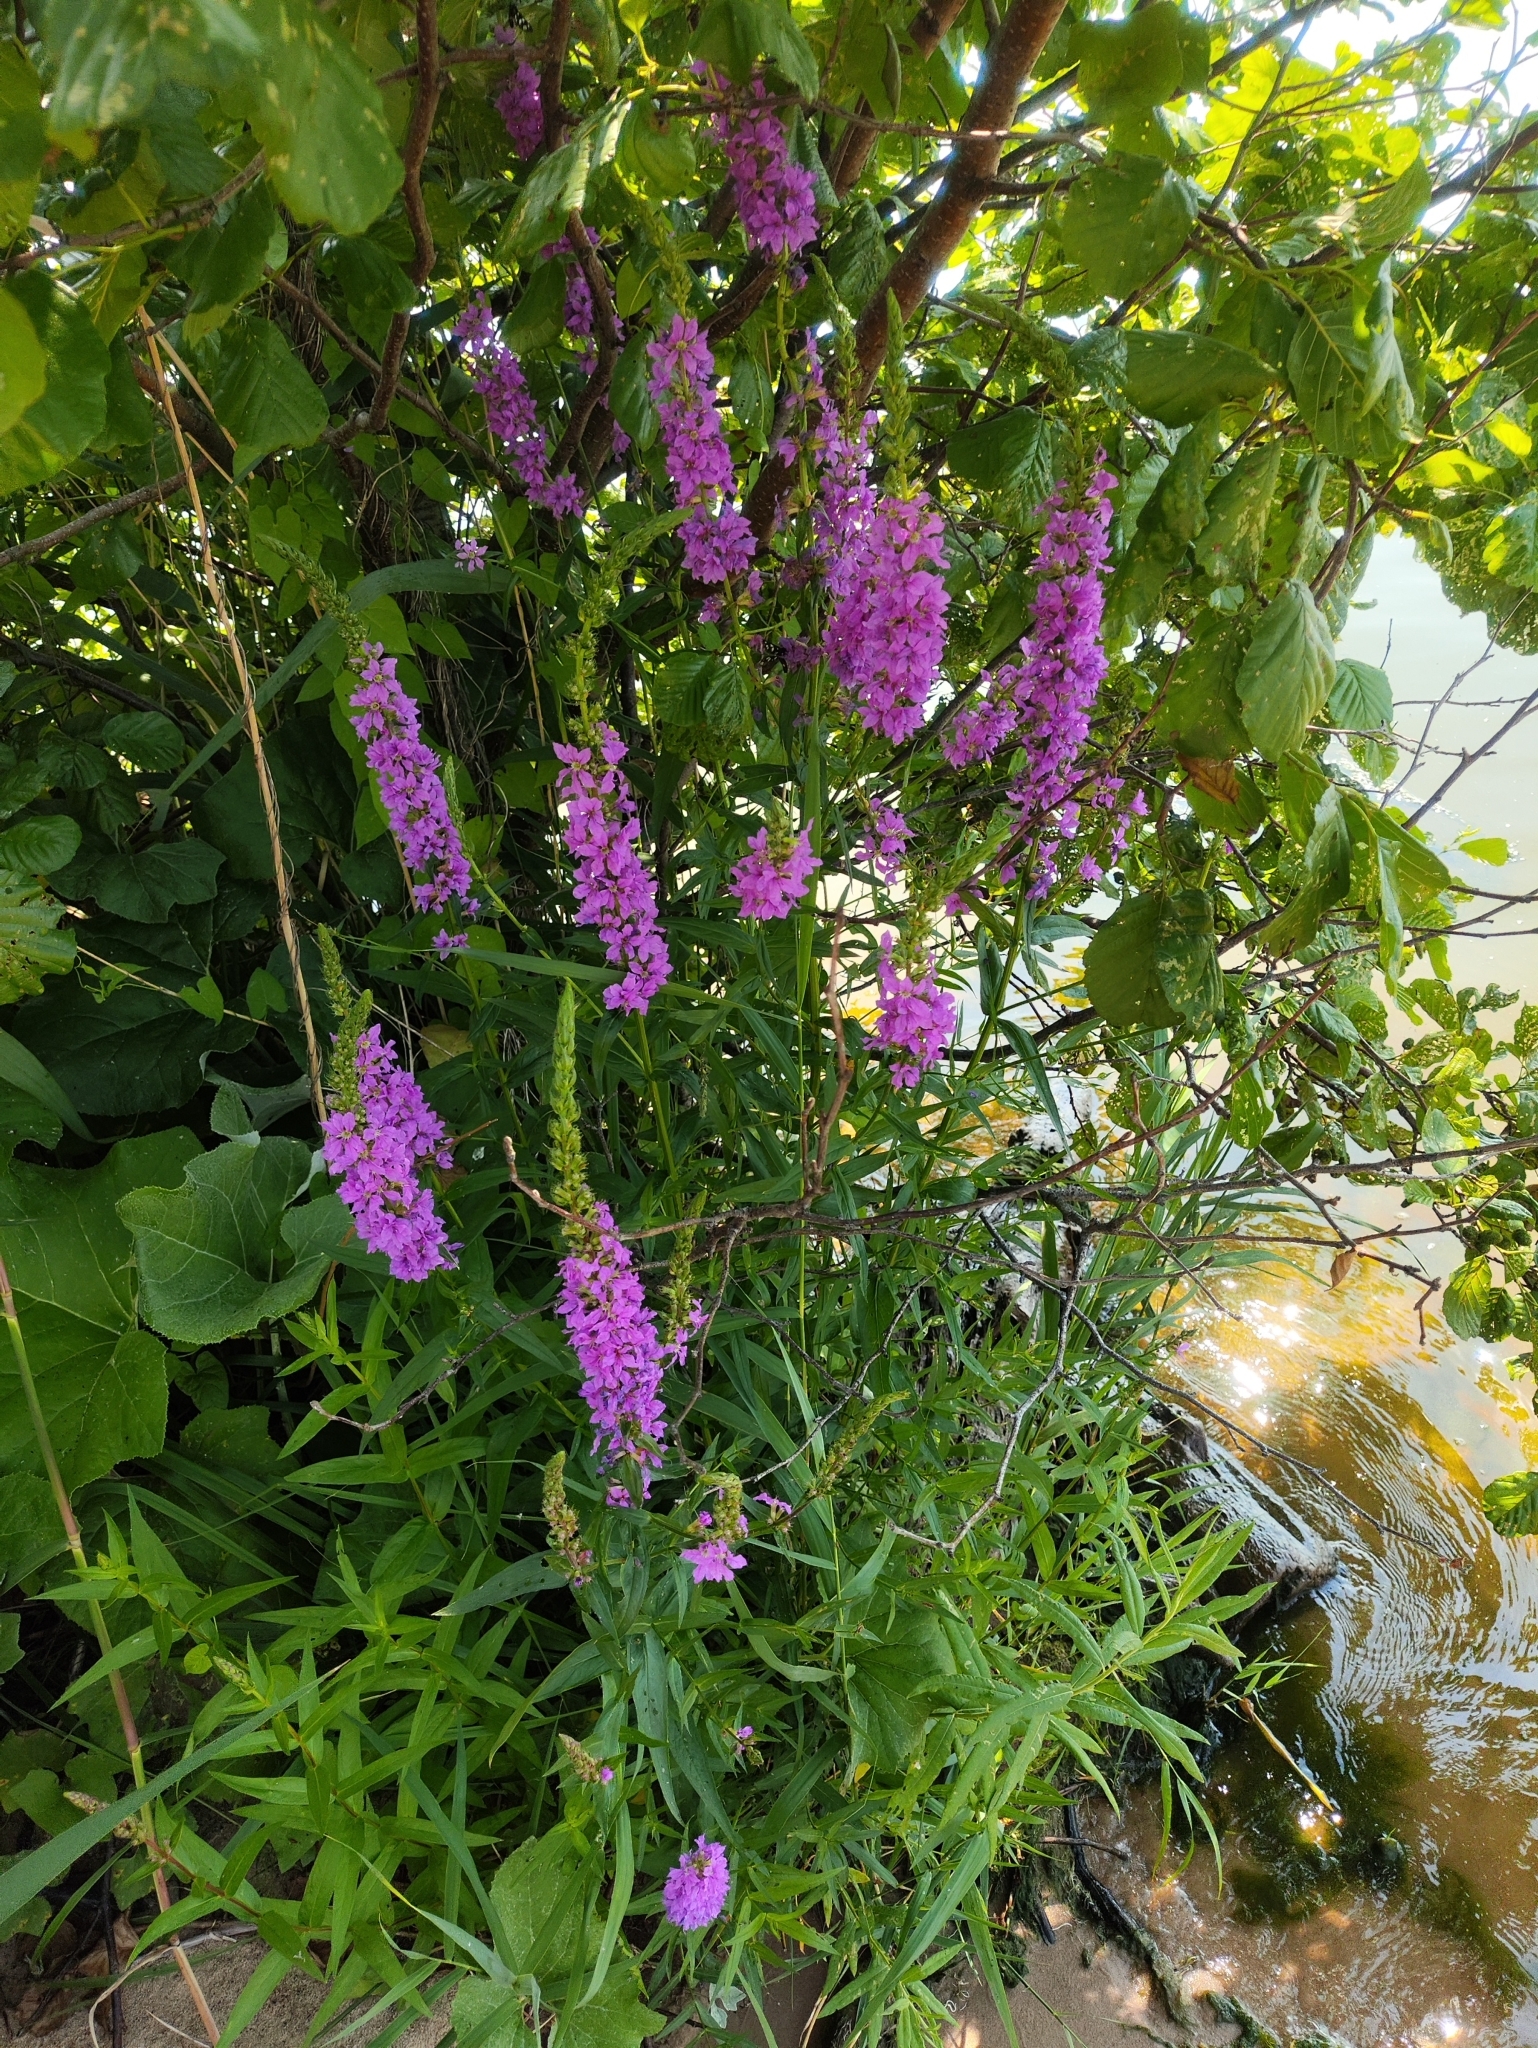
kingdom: Plantae
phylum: Tracheophyta
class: Magnoliopsida
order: Myrtales
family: Lythraceae
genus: Lythrum
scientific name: Lythrum salicaria
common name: Purple loosestrife
